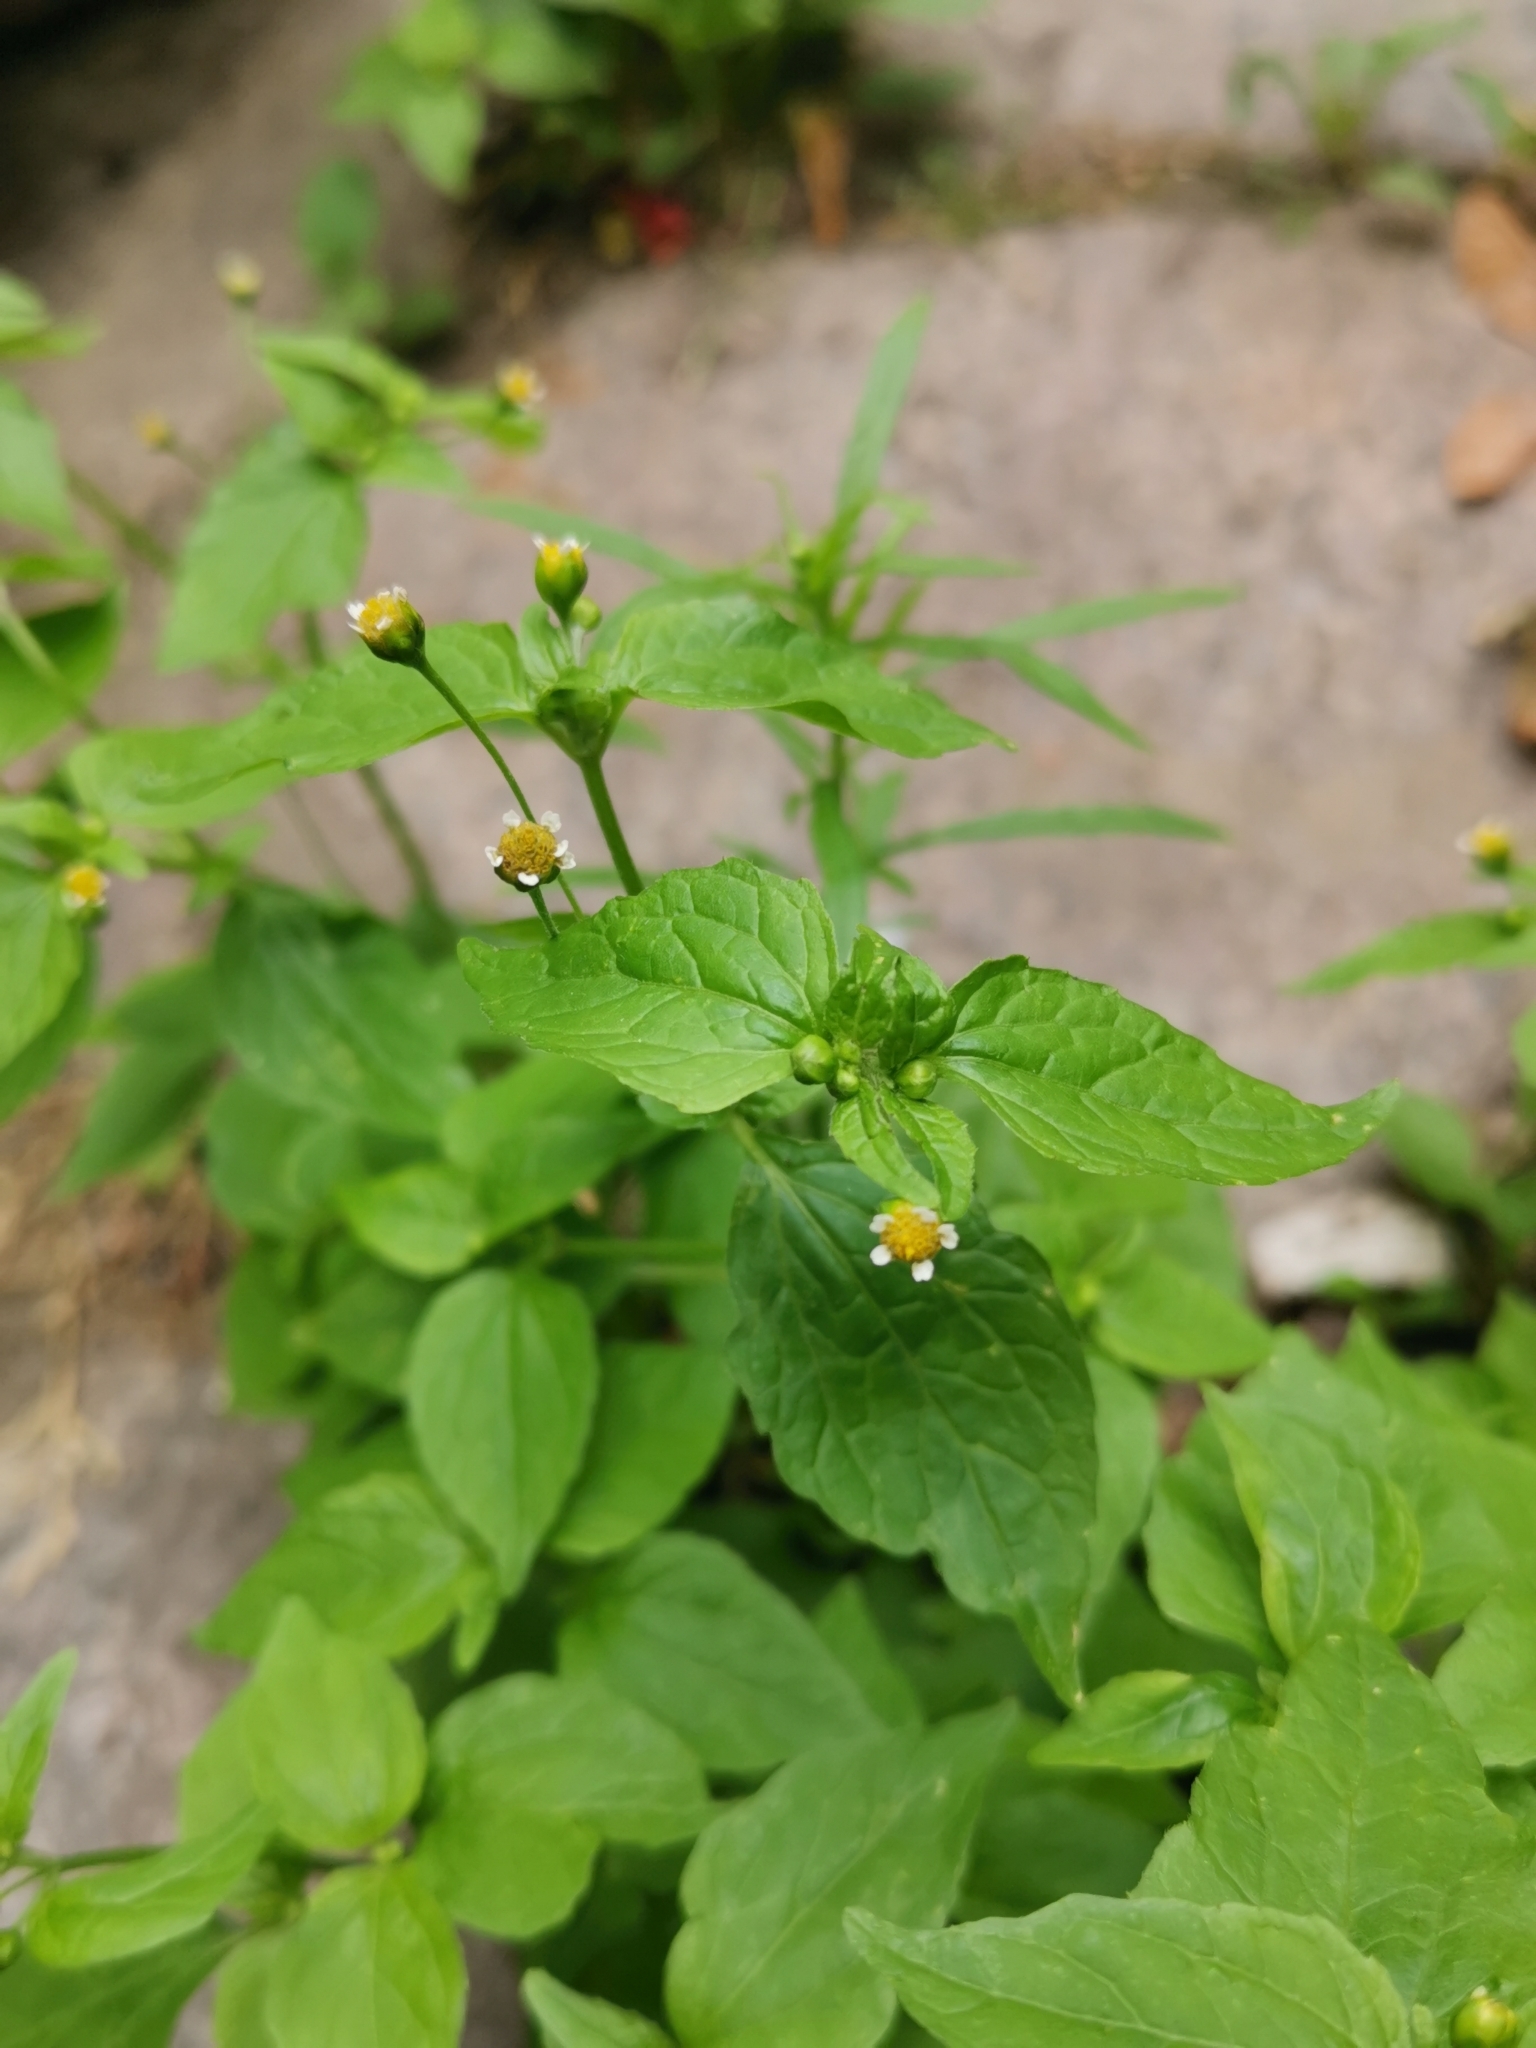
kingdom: Plantae
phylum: Tracheophyta
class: Magnoliopsida
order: Asterales
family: Asteraceae
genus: Galinsoga
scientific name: Galinsoga parviflora
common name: Gallant soldier
